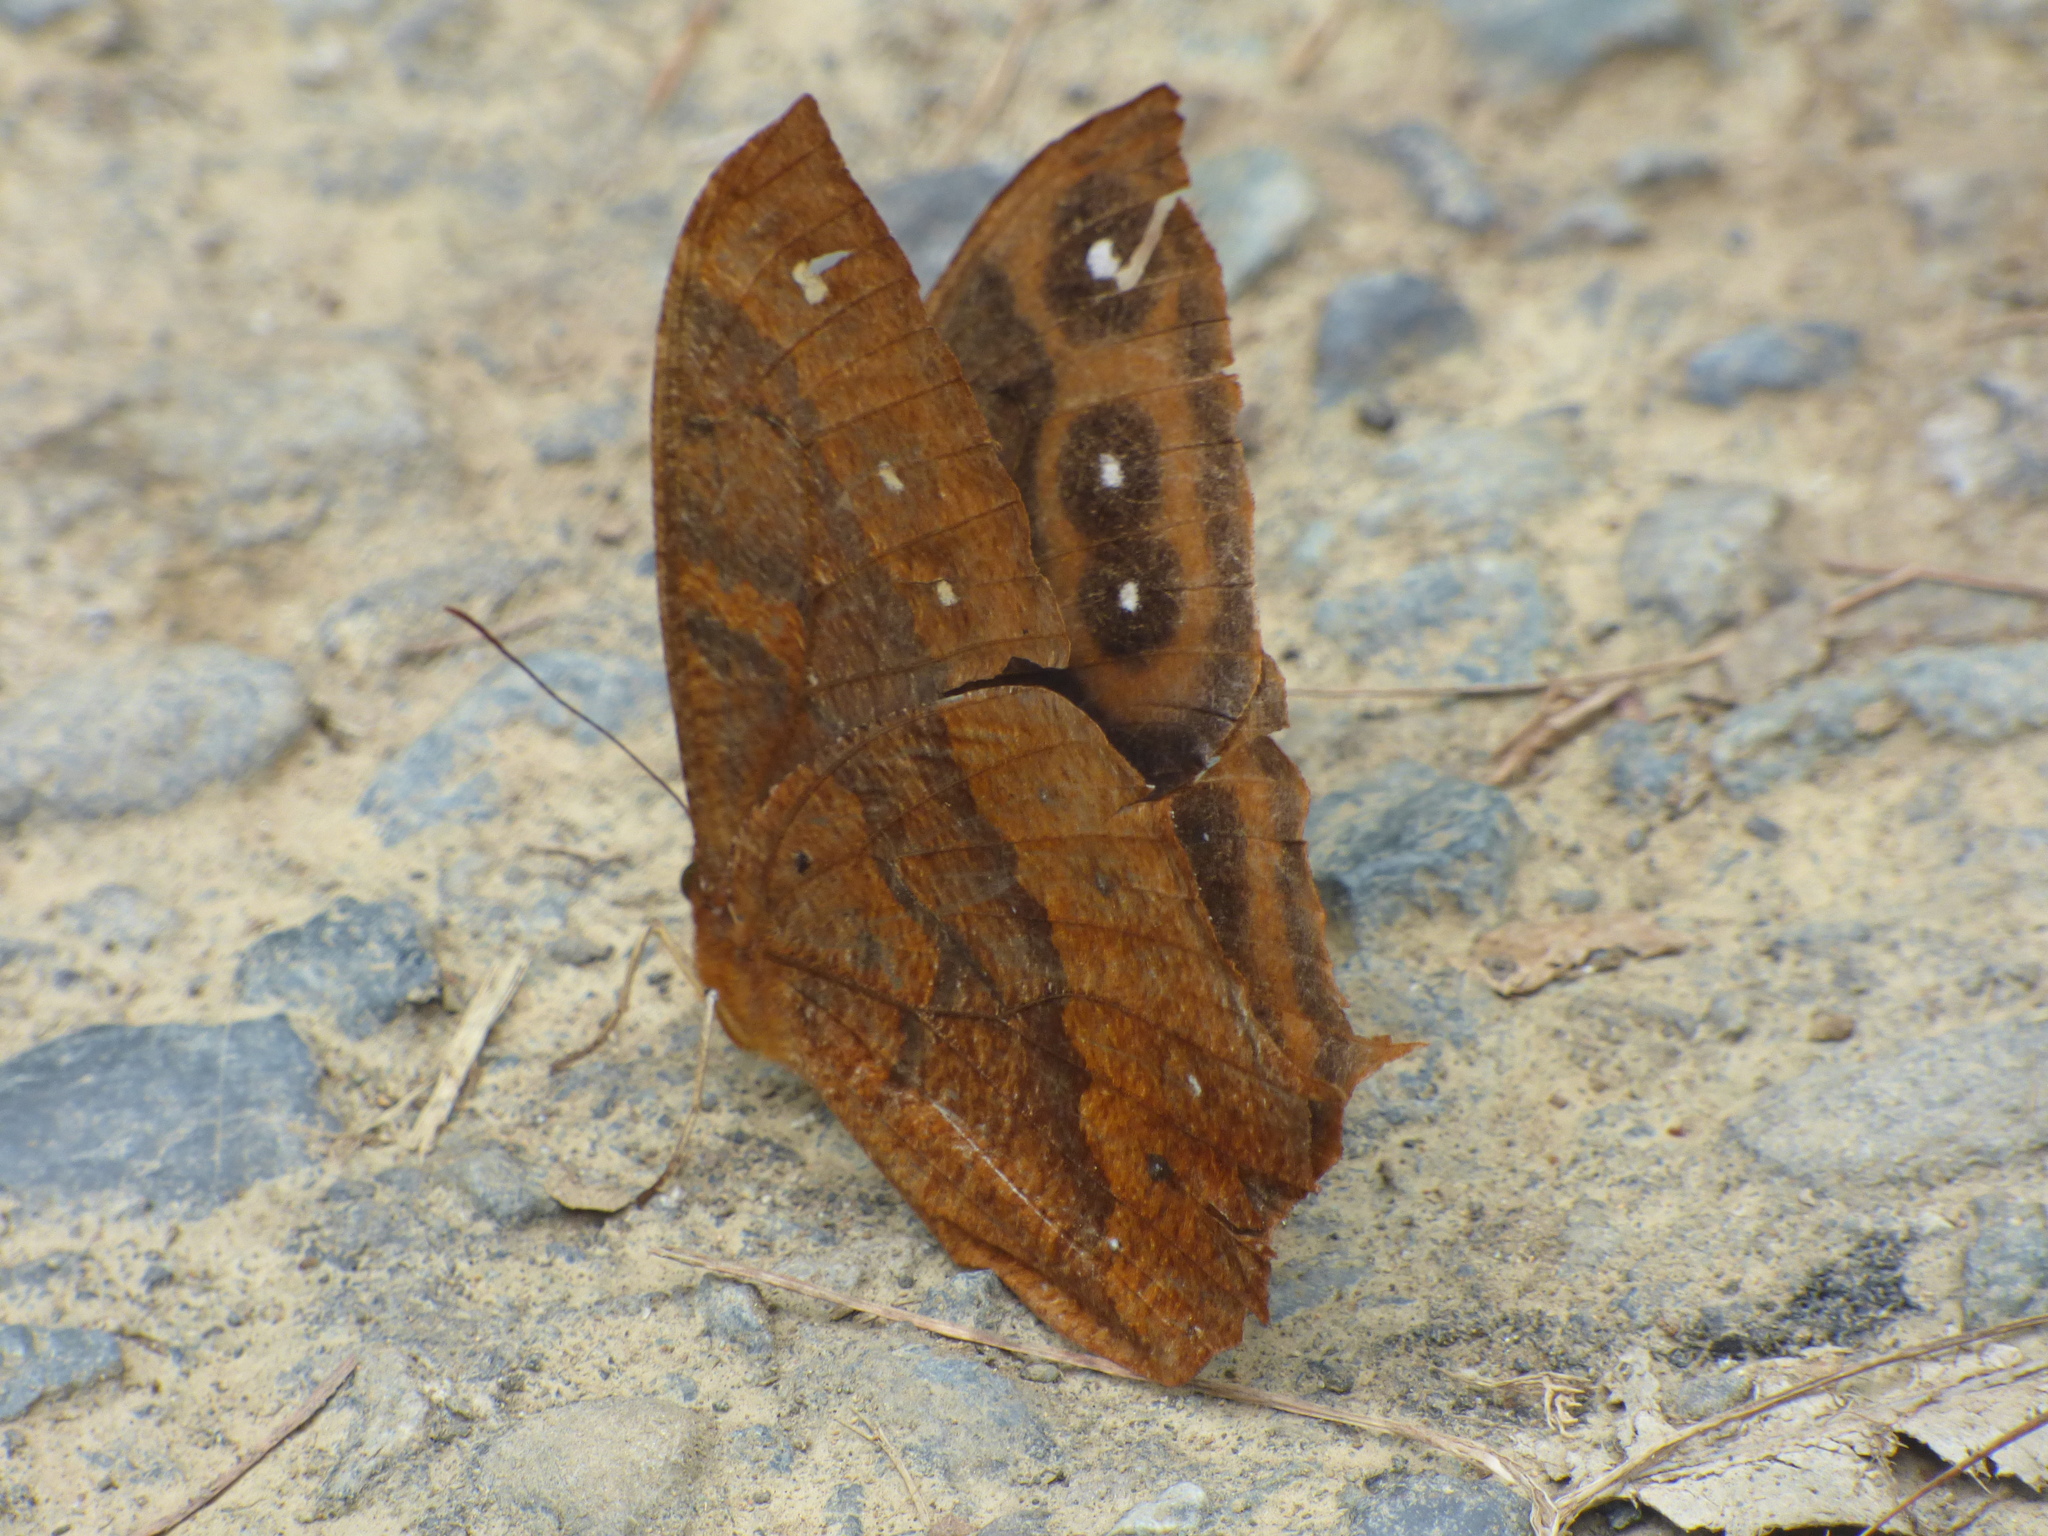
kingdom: Animalia
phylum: Arthropoda
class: Insecta
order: Lepidoptera
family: Nymphalidae
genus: Antirrhea
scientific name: Antirrhea geryon
